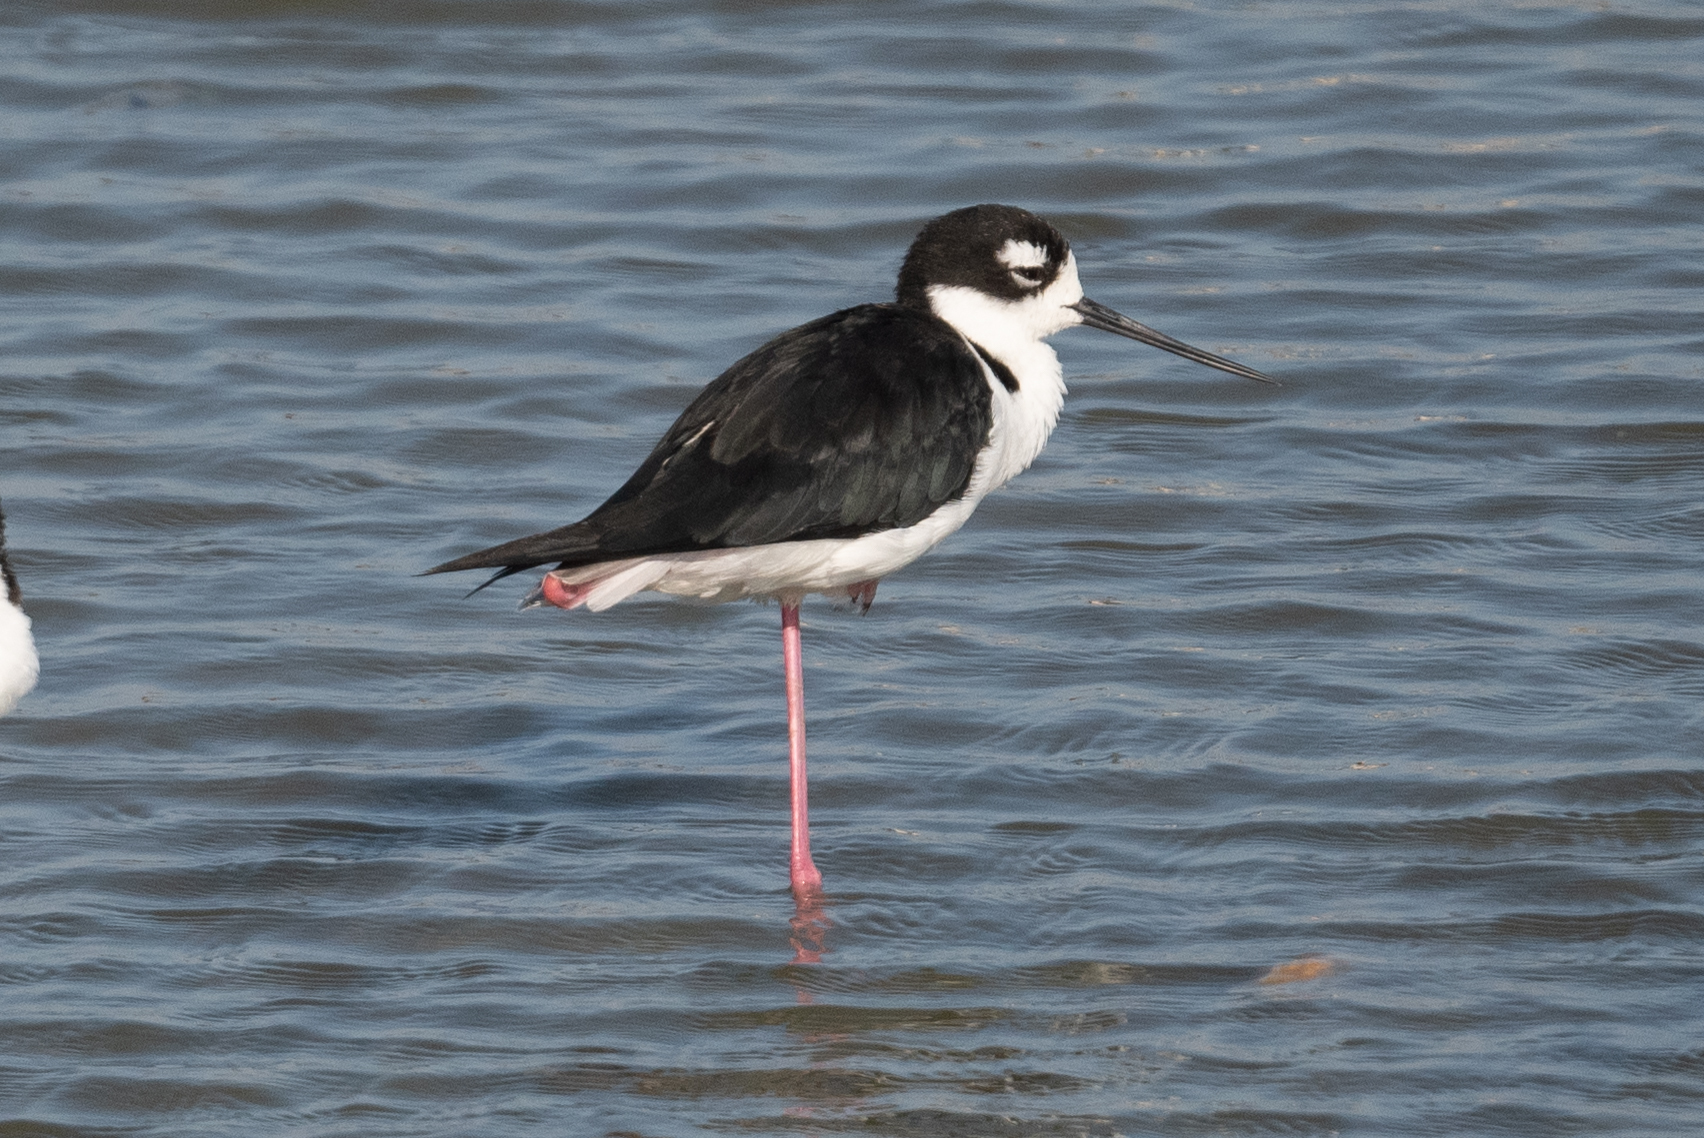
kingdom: Animalia
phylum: Chordata
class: Aves
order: Charadriiformes
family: Recurvirostridae
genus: Himantopus
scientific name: Himantopus mexicanus
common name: Black-necked stilt
